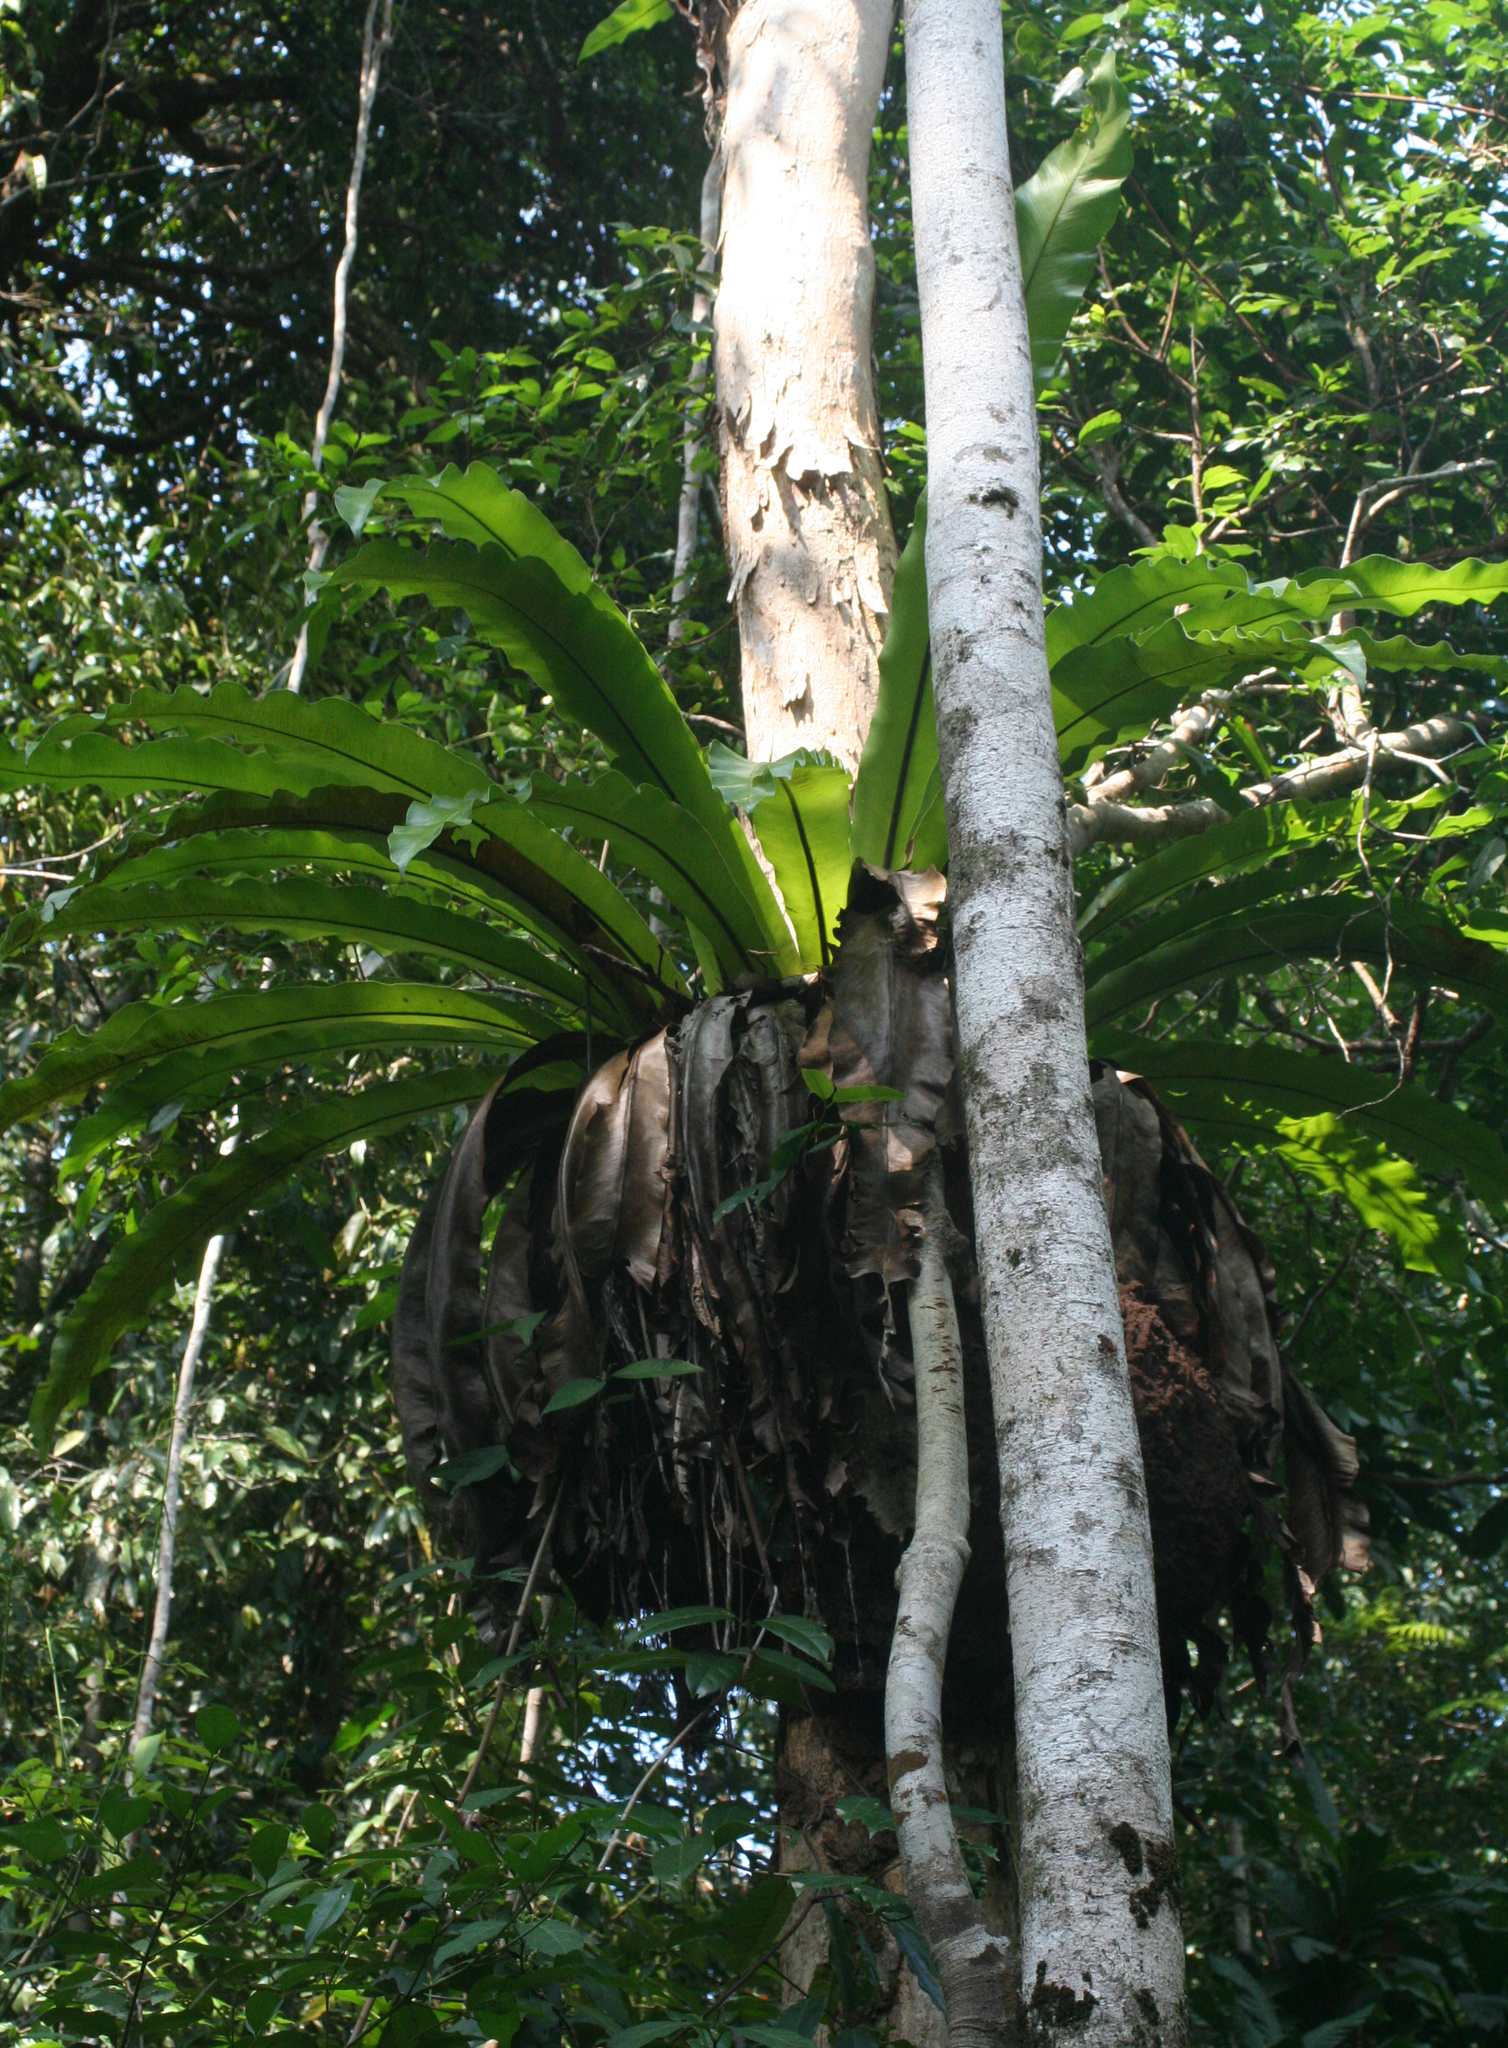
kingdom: Plantae
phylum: Tracheophyta
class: Polypodiopsida
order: Polypodiales
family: Aspleniaceae
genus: Asplenium
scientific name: Asplenium nidus
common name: Bird's-nest fern
